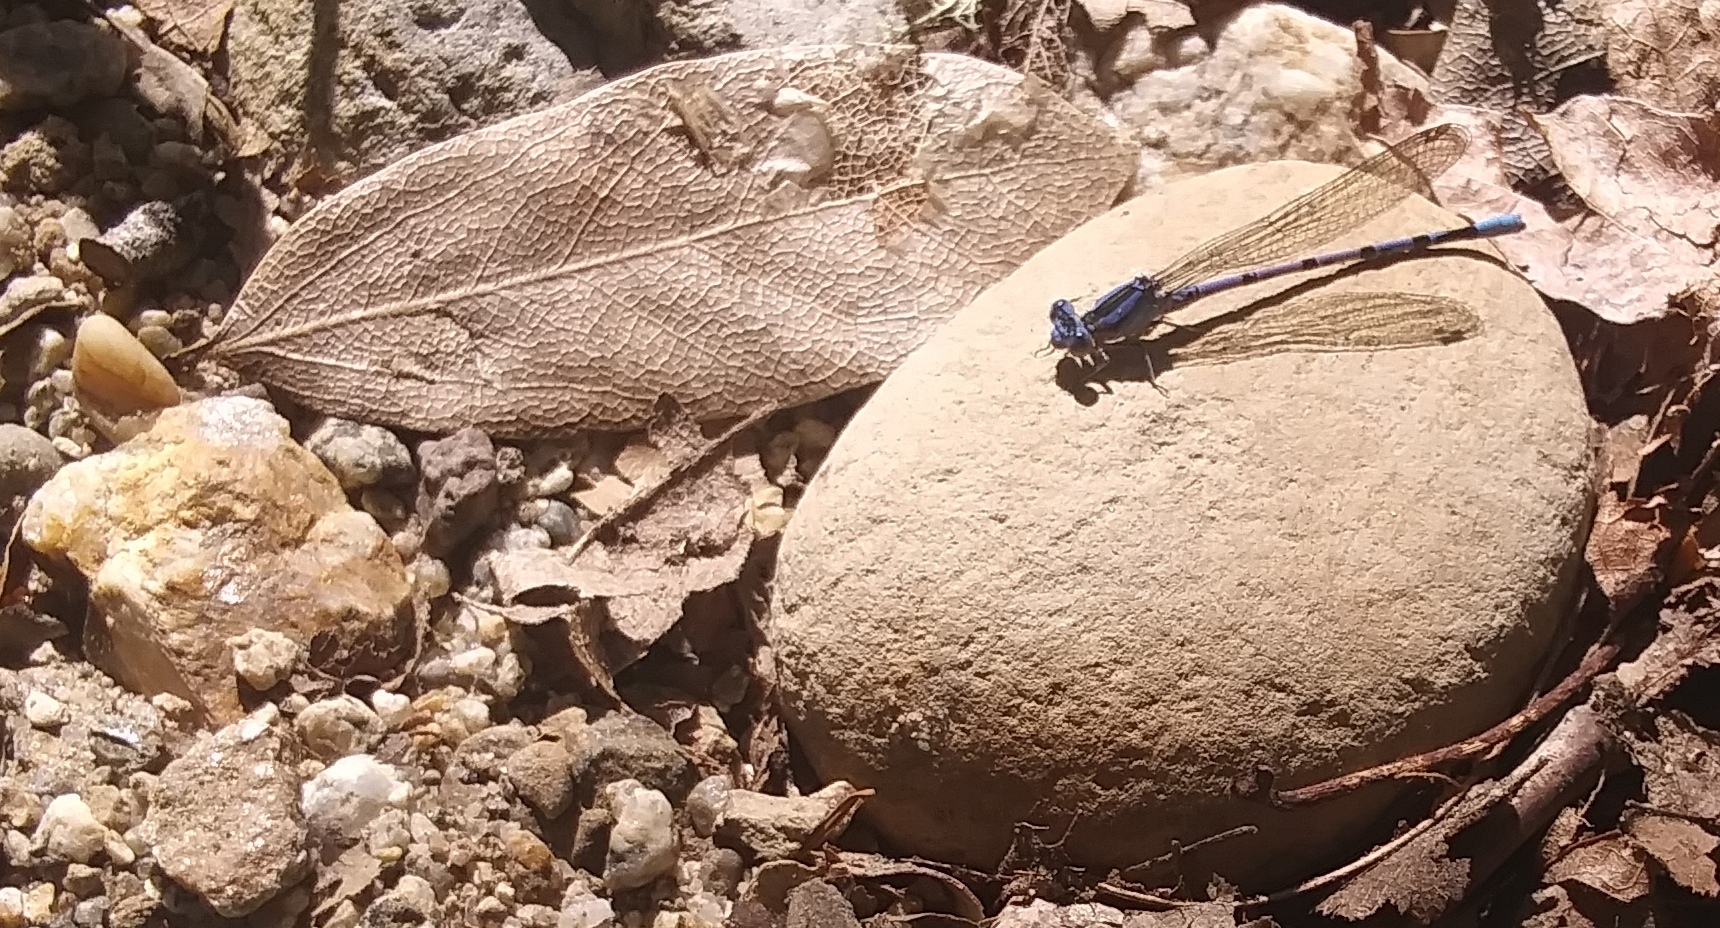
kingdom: Animalia
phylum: Arthropoda
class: Insecta
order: Odonata
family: Coenagrionidae
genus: Argia
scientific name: Argia vivida
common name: Vivid dancer
